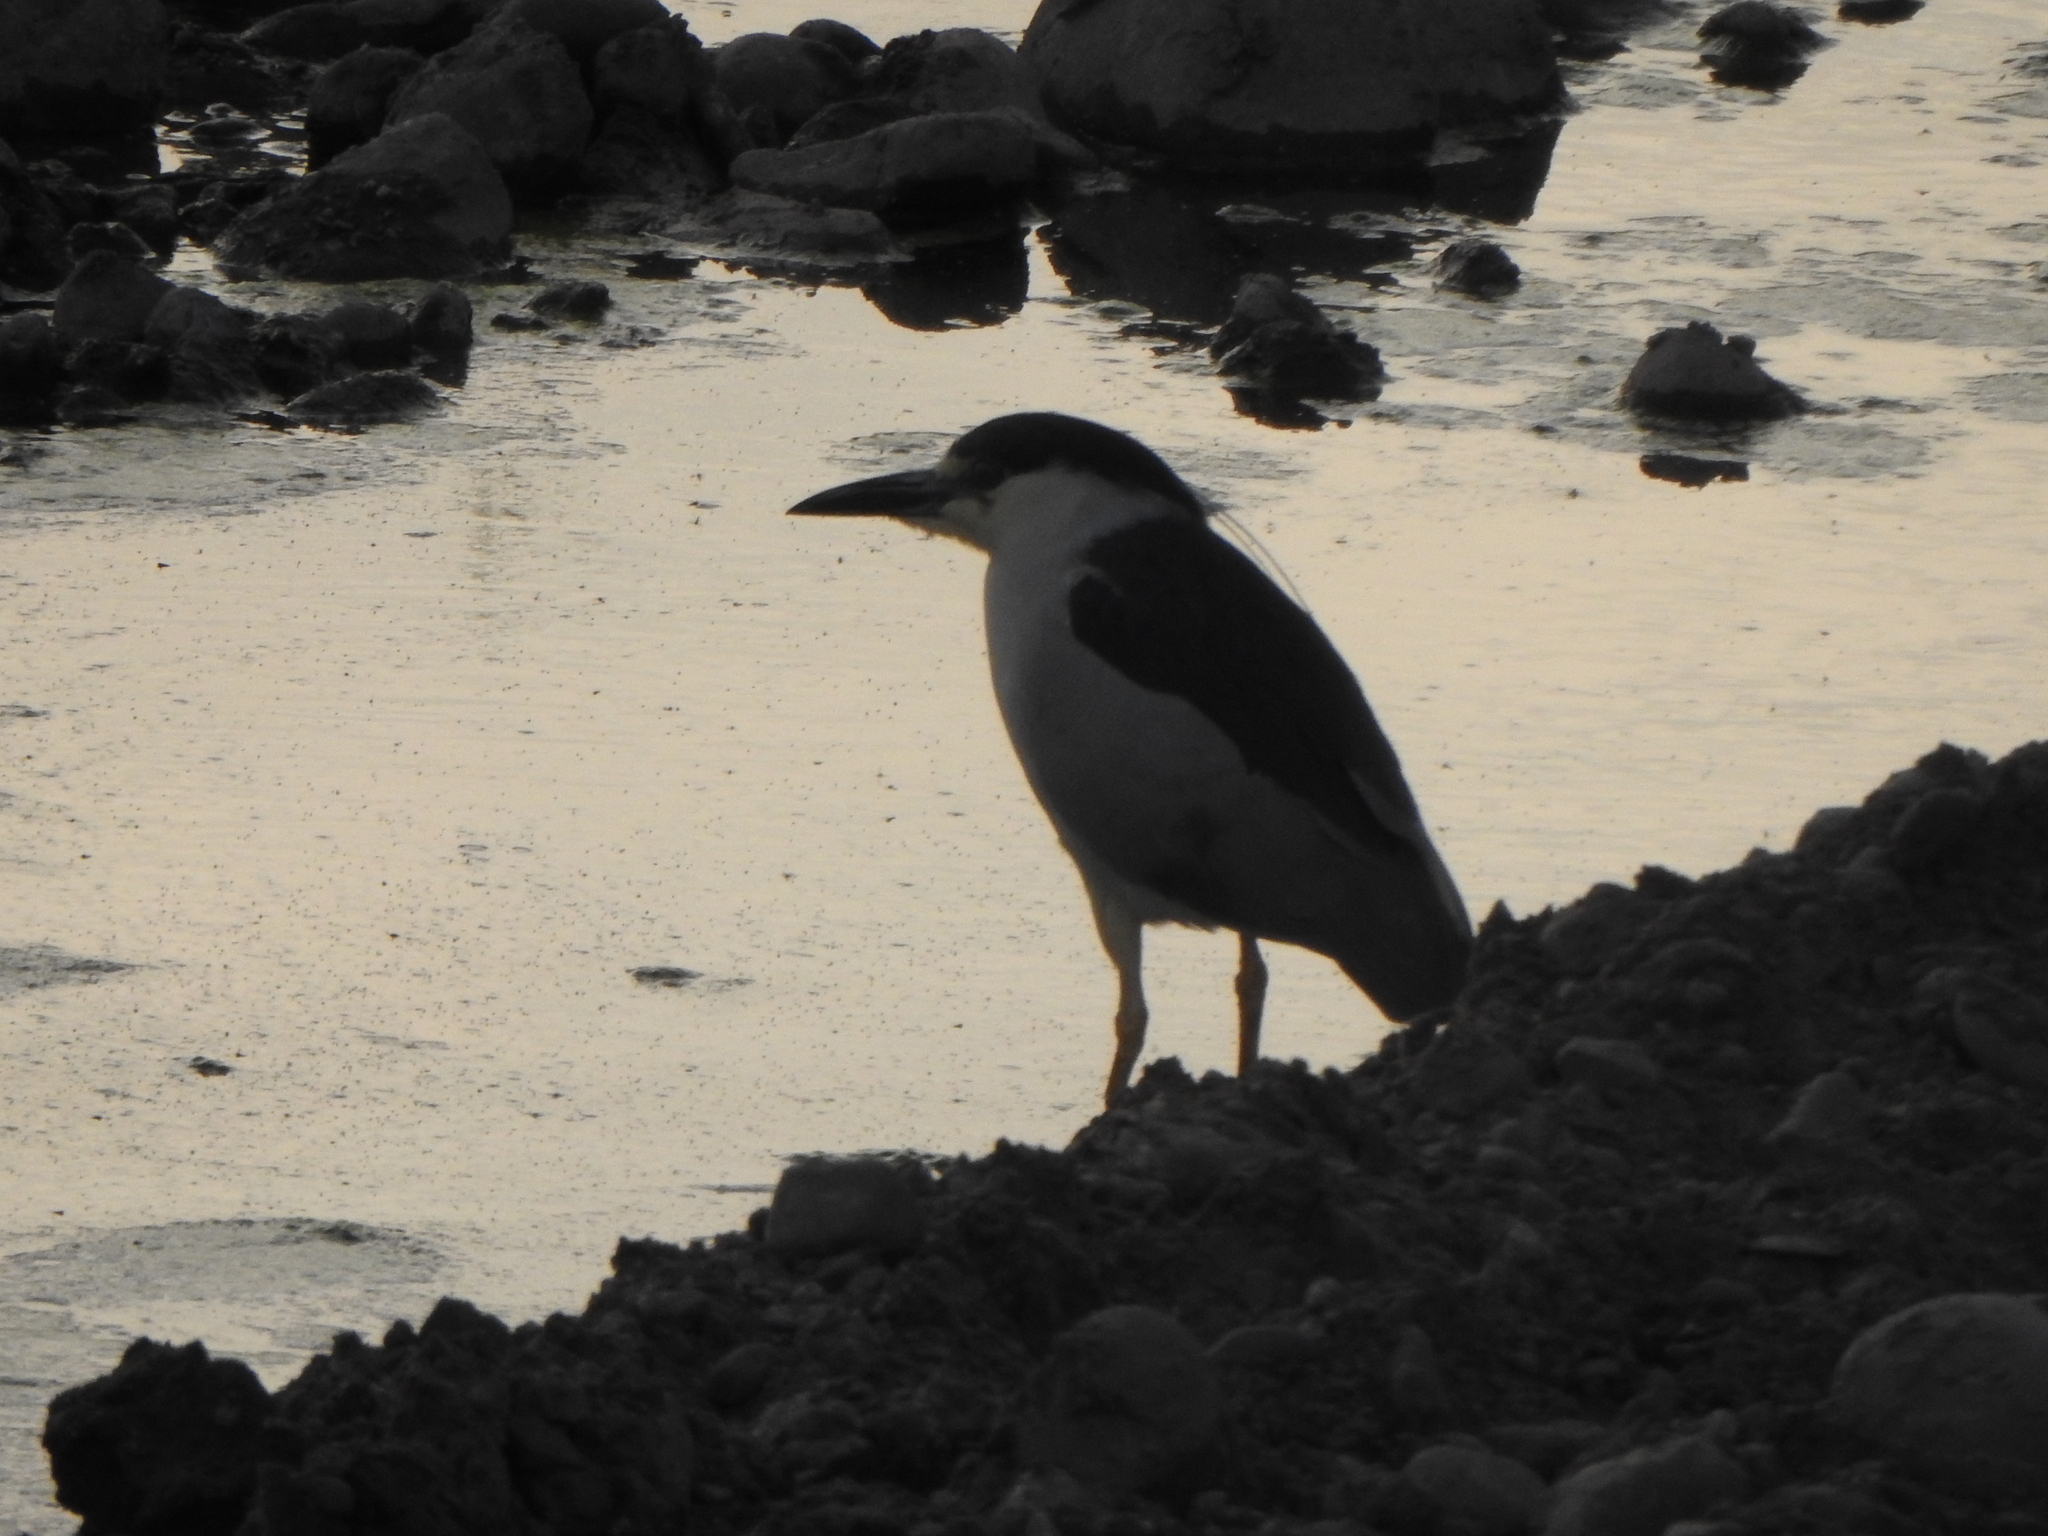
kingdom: Animalia
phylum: Chordata
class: Aves
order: Pelecaniformes
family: Ardeidae
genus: Nycticorax
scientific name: Nycticorax nycticorax
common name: Black-crowned night heron
